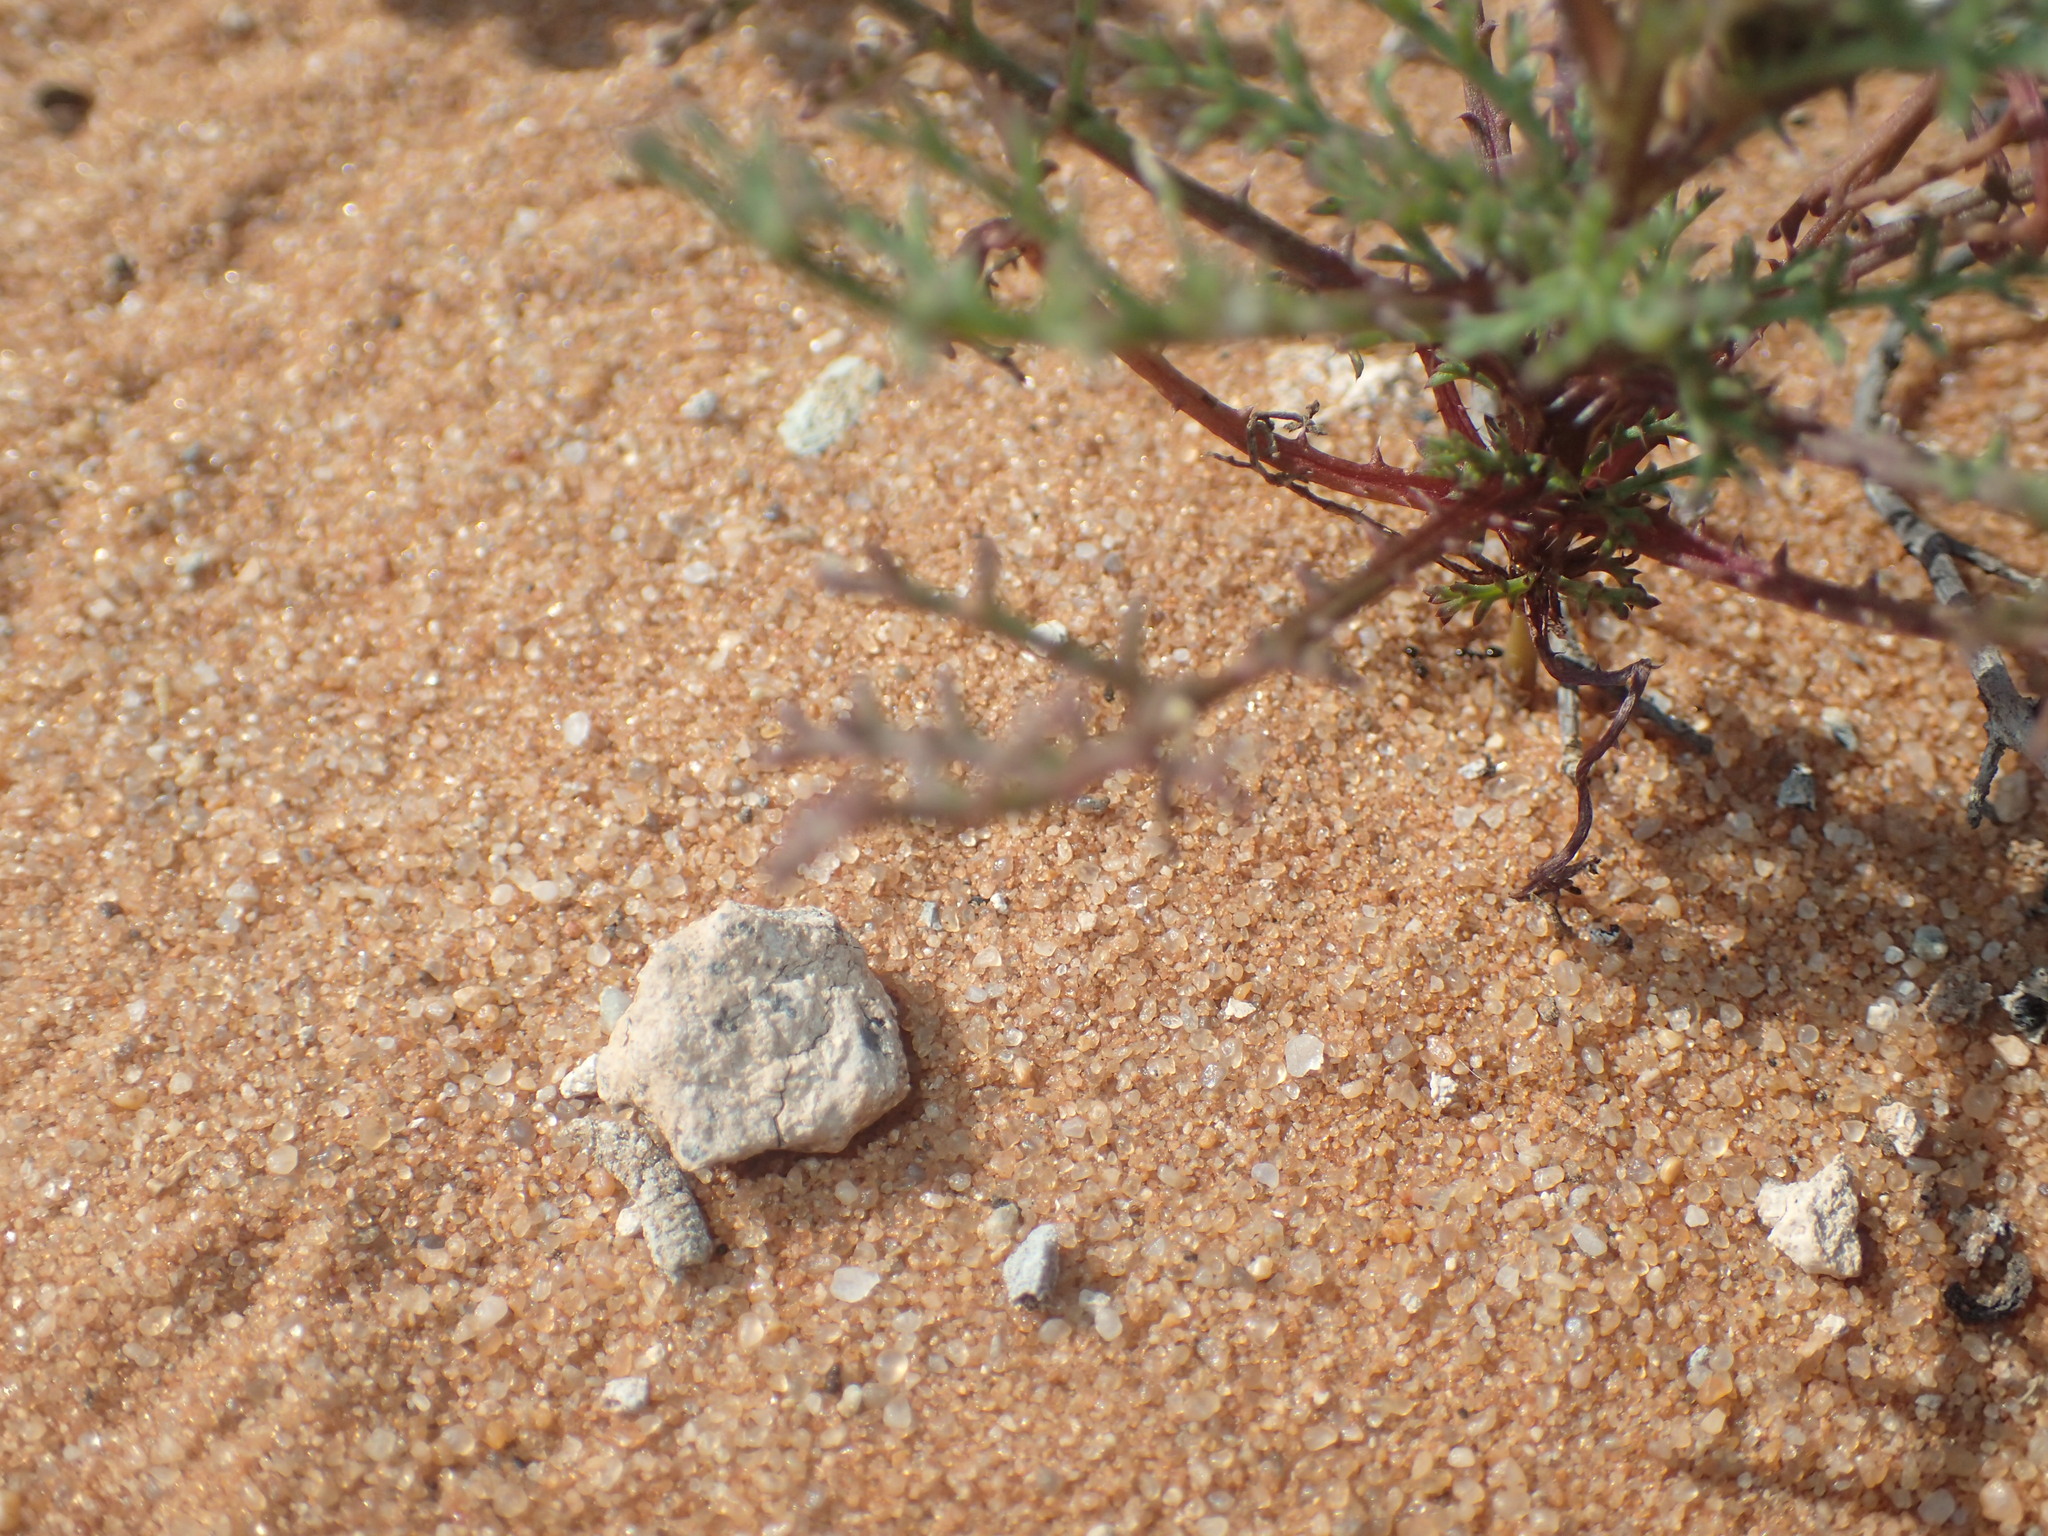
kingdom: Plantae
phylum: Tracheophyta
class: Magnoliopsida
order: Asterales
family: Asteraceae
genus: Ursinia
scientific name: Ursinia speciosa
